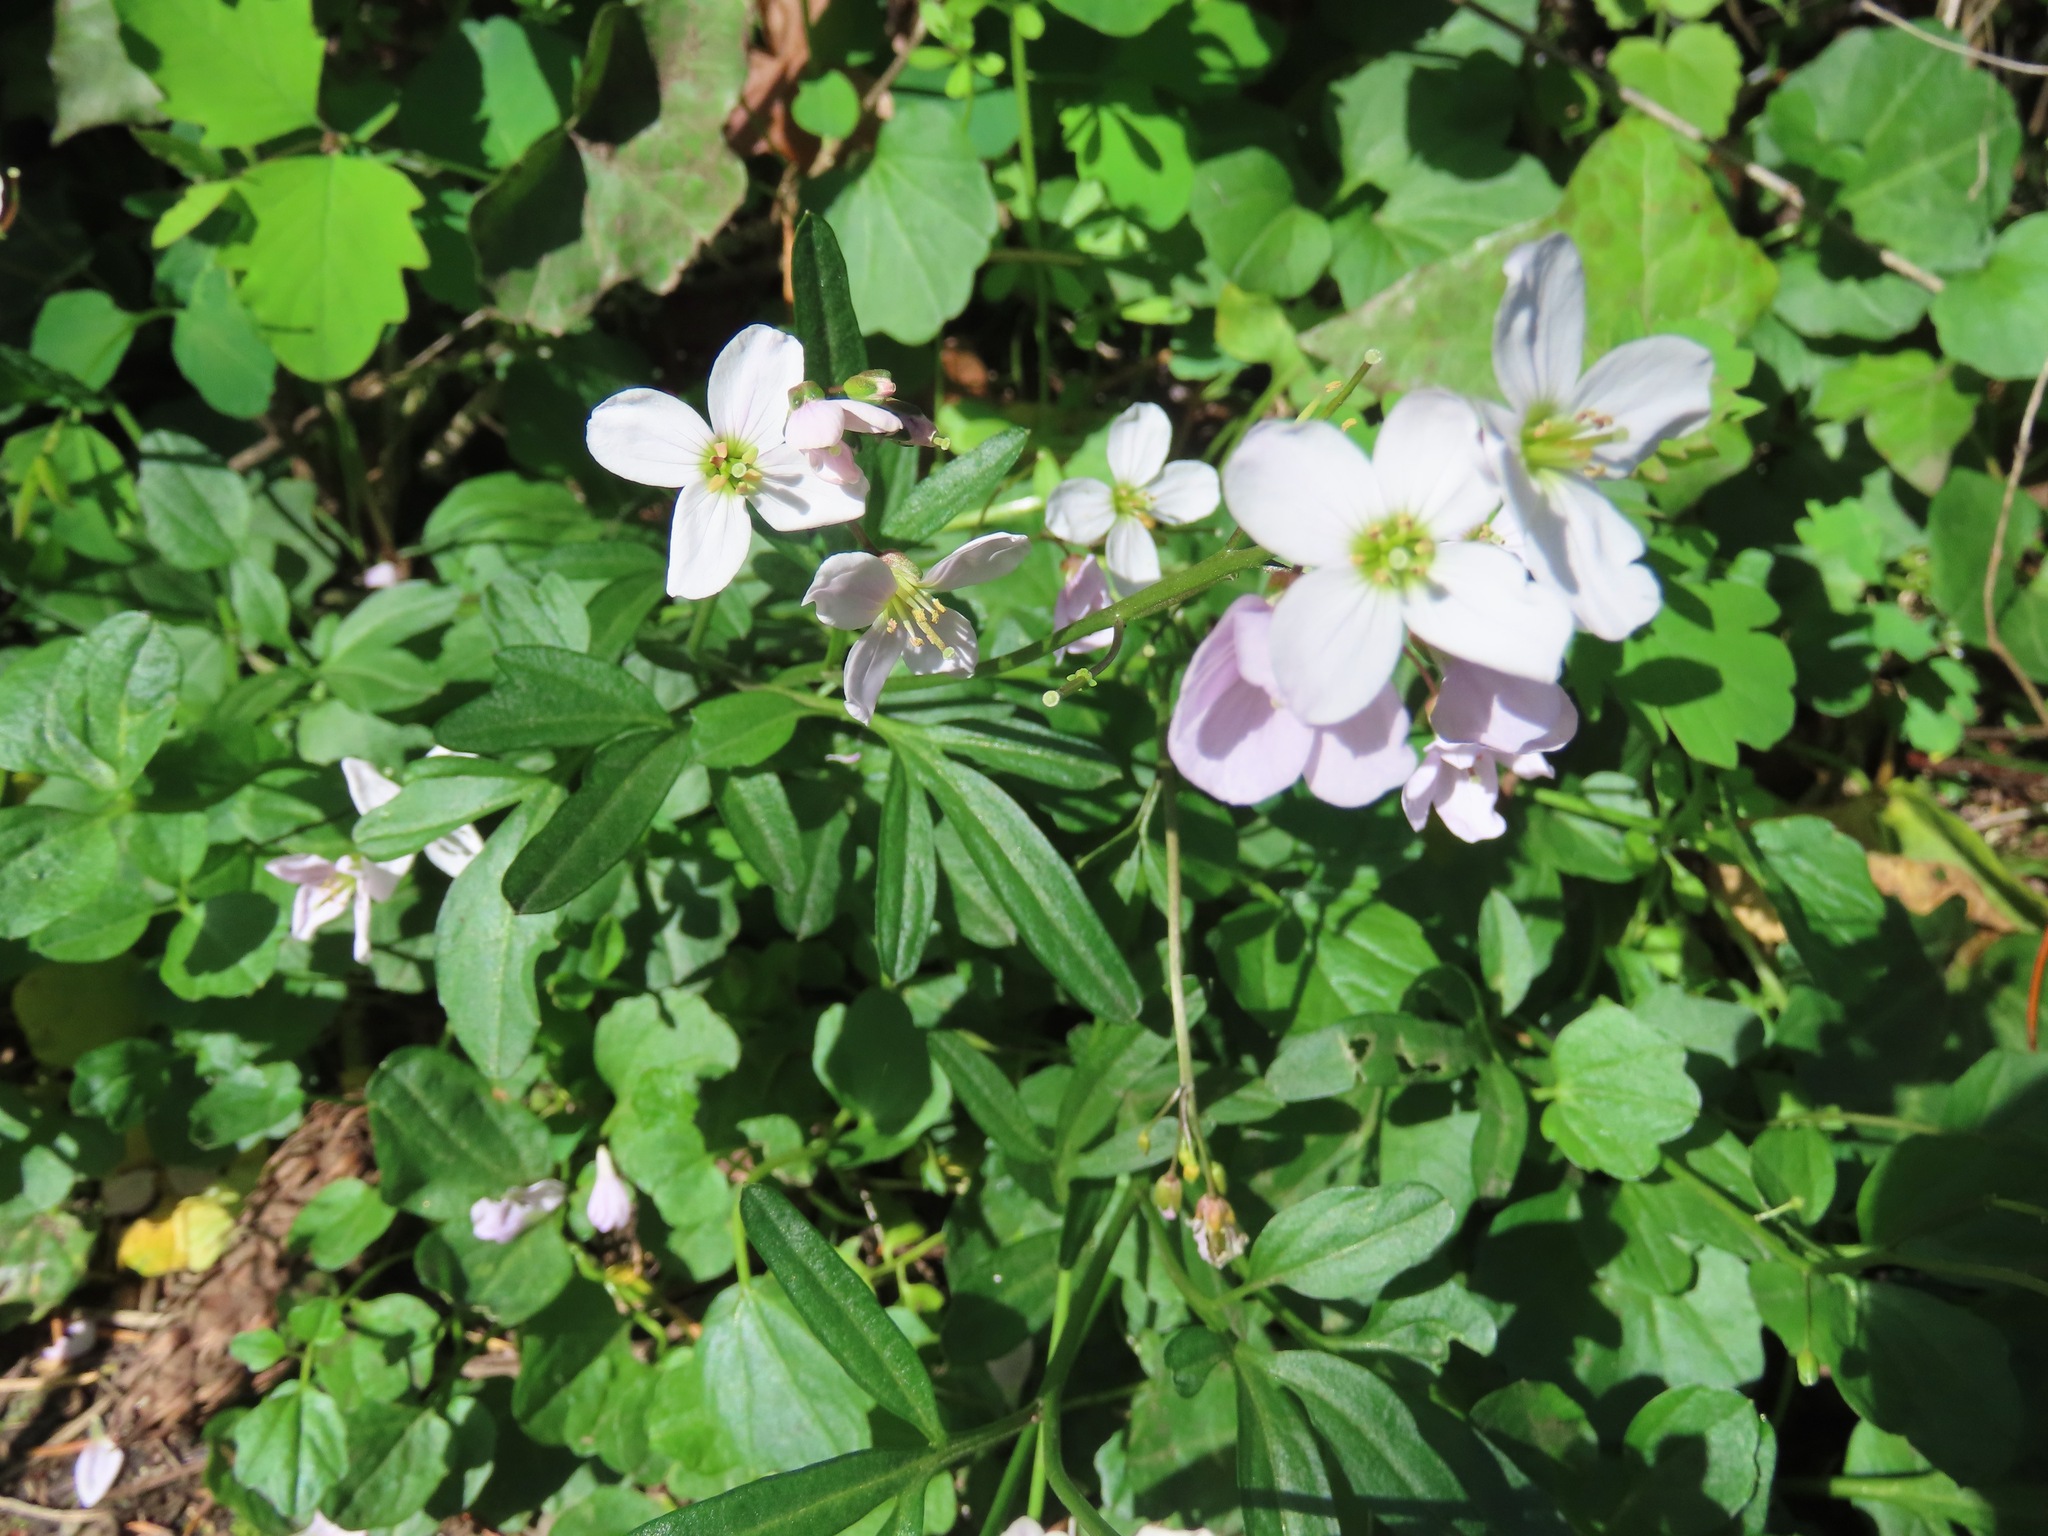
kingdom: Plantae
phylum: Tracheophyta
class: Magnoliopsida
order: Brassicales
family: Brassicaceae
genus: Cardamine
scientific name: Cardamine nuttallii
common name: Nuttall's toothwort
